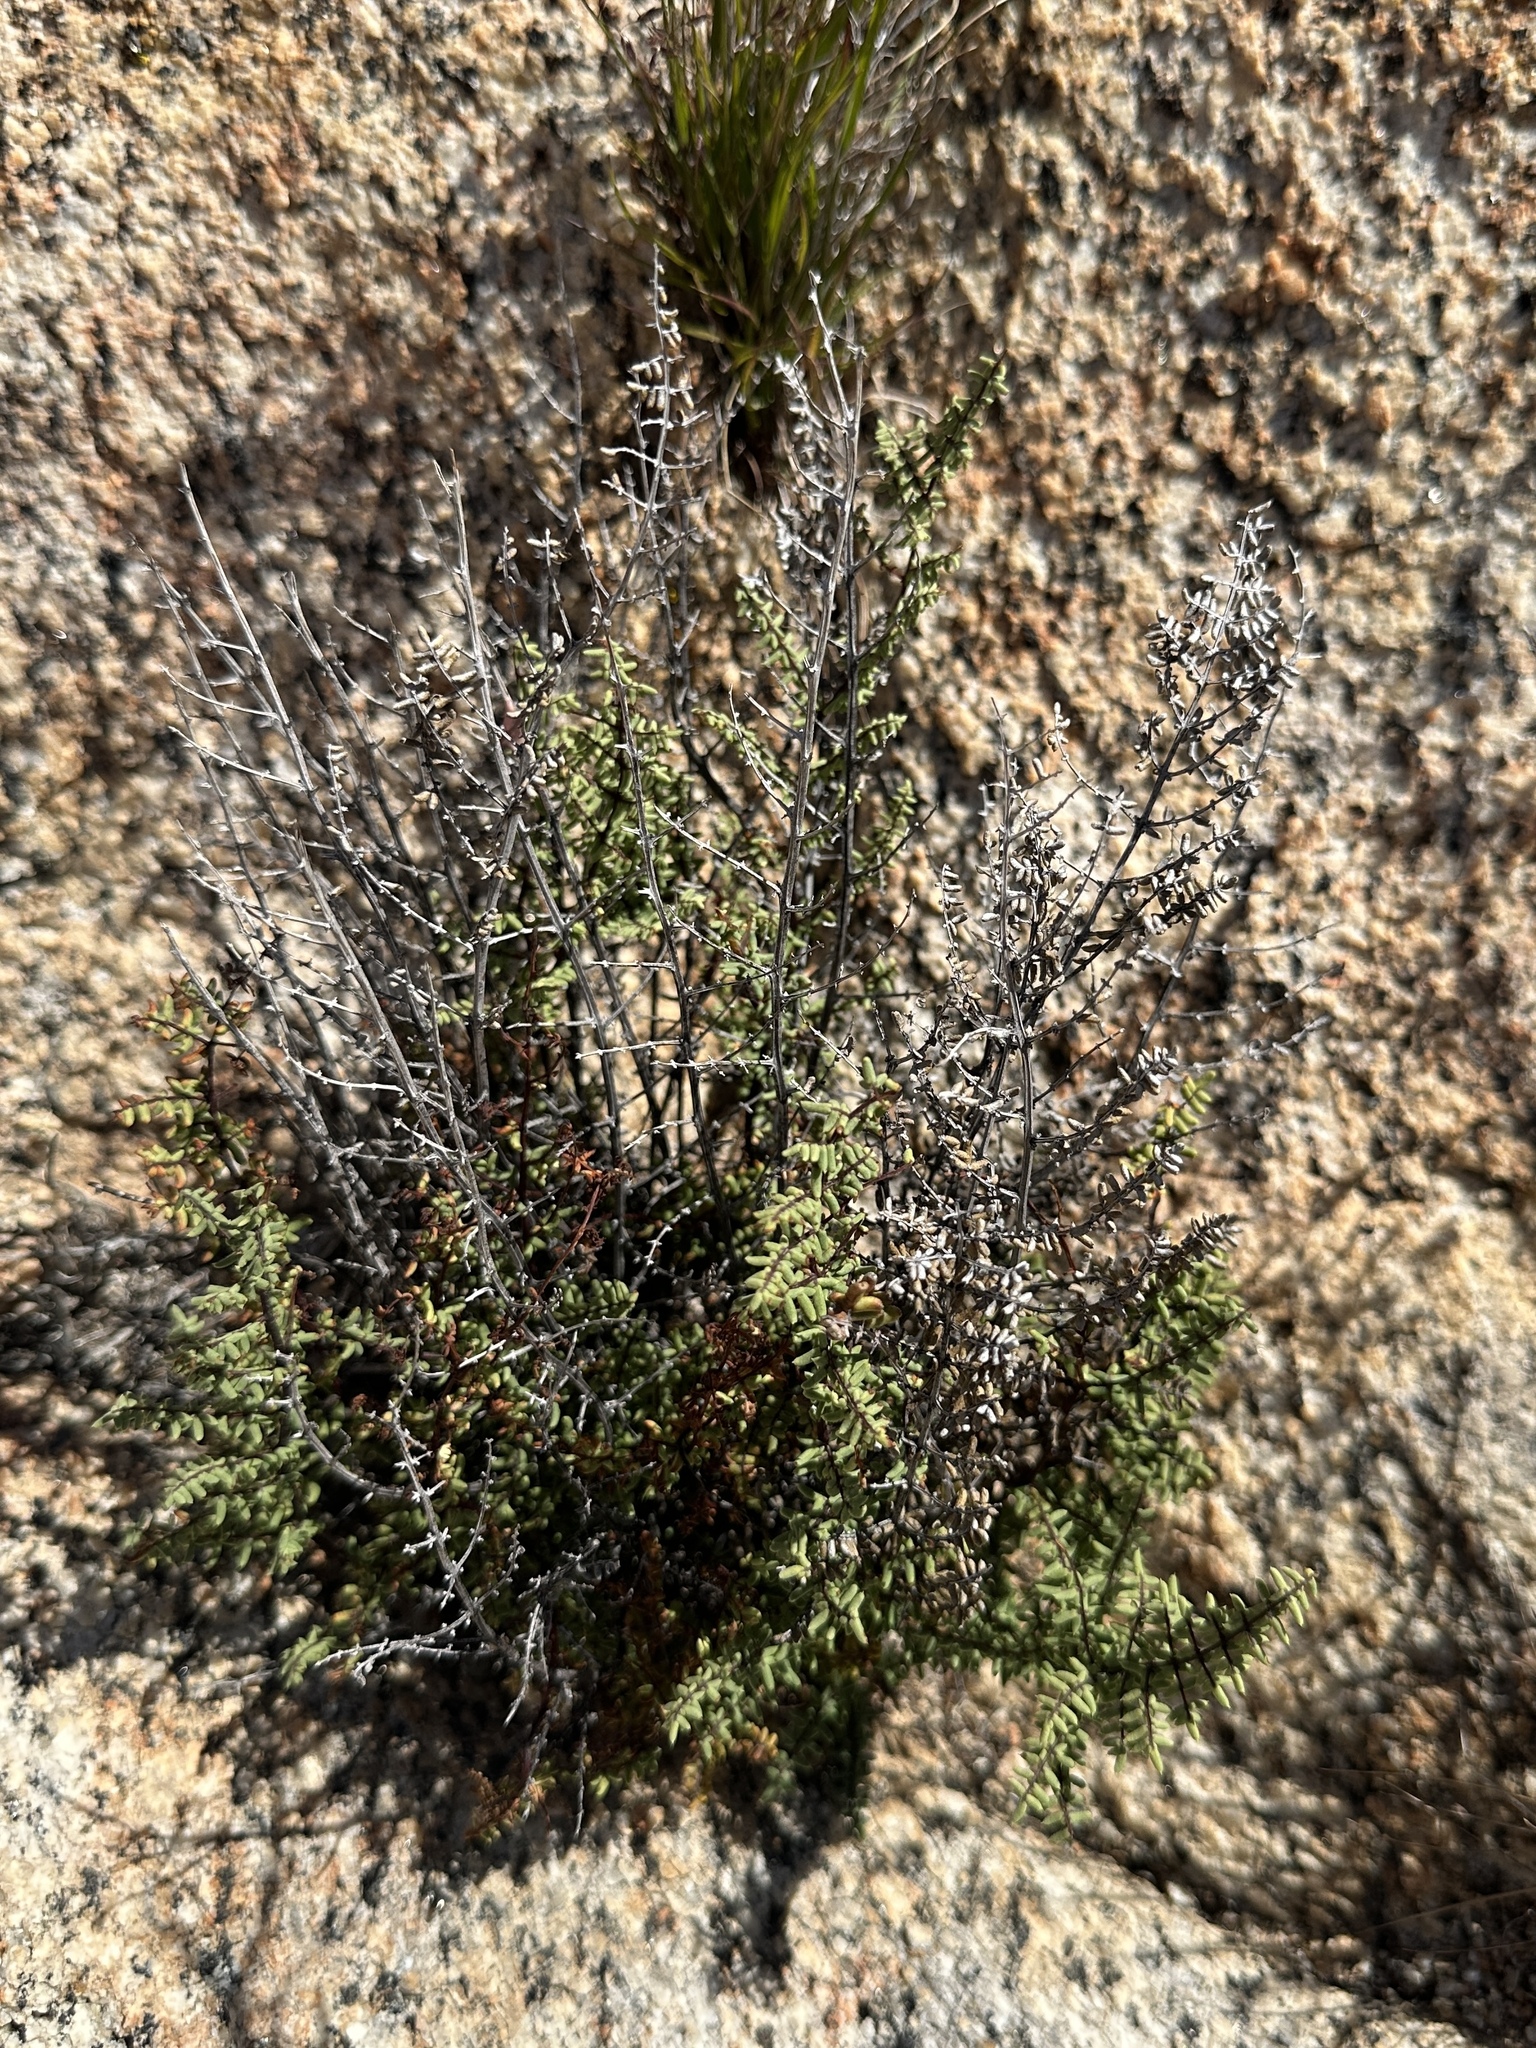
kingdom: Plantae
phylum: Tracheophyta
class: Polypodiopsida
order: Polypodiales
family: Pteridaceae
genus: Pellaea
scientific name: Pellaea mucronata
